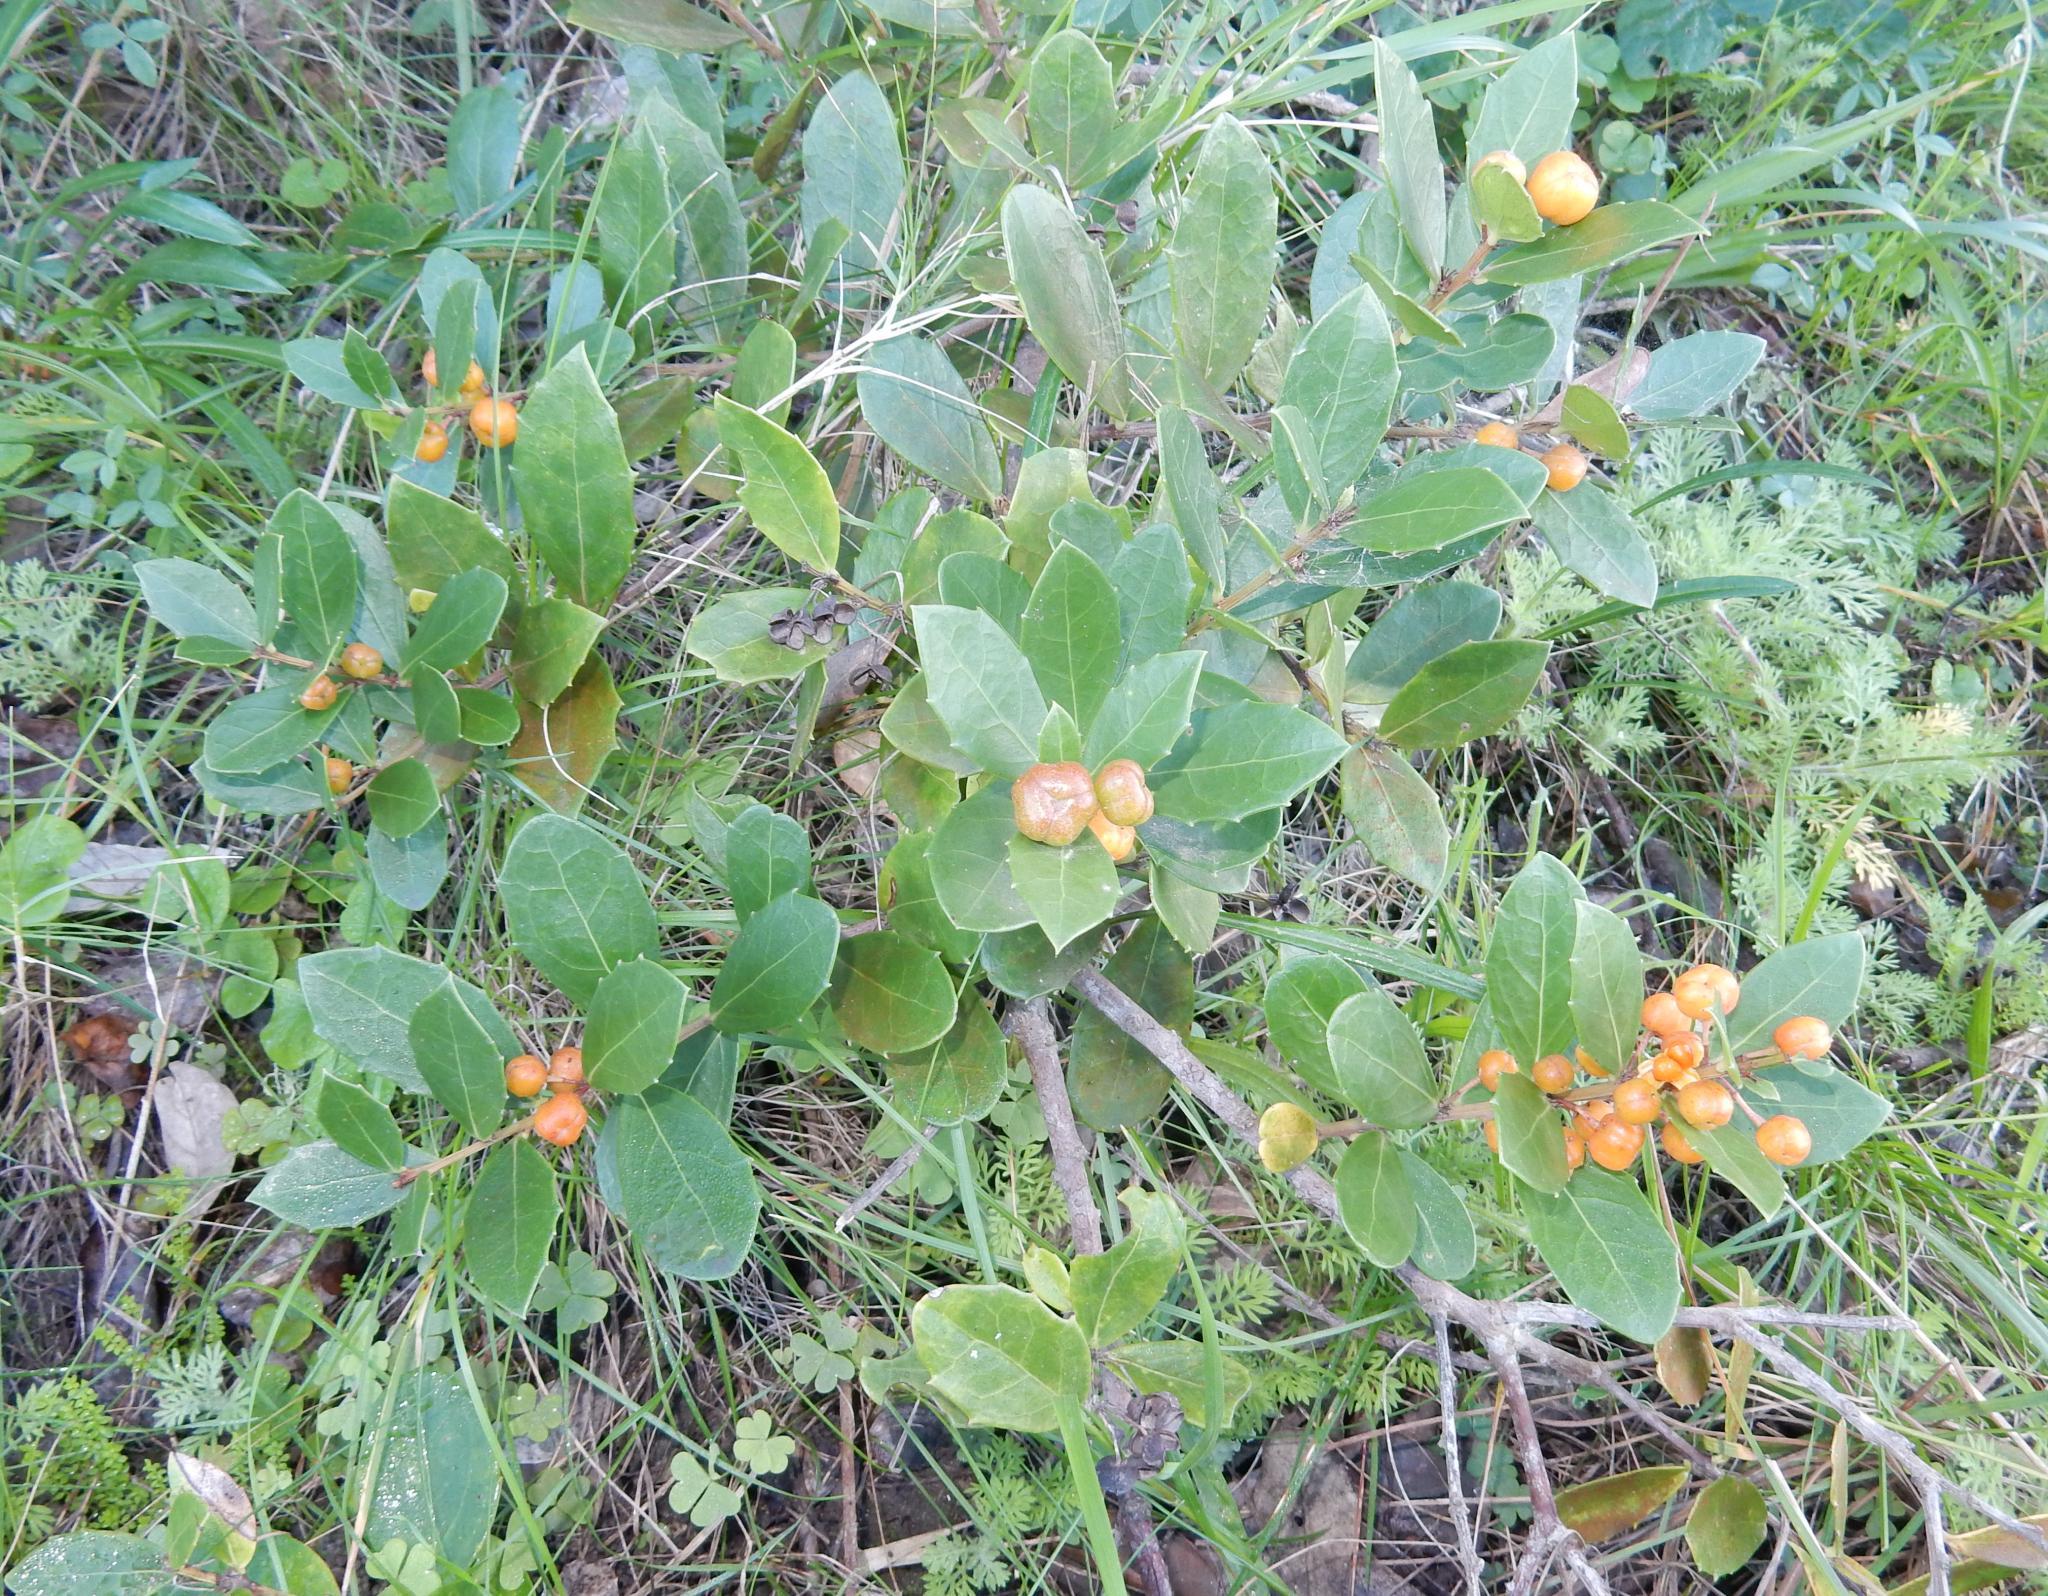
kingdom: Plantae
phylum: Tracheophyta
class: Magnoliopsida
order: Celastrales
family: Celastraceae
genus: Gymnosporia
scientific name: Gymnosporia procumbens
